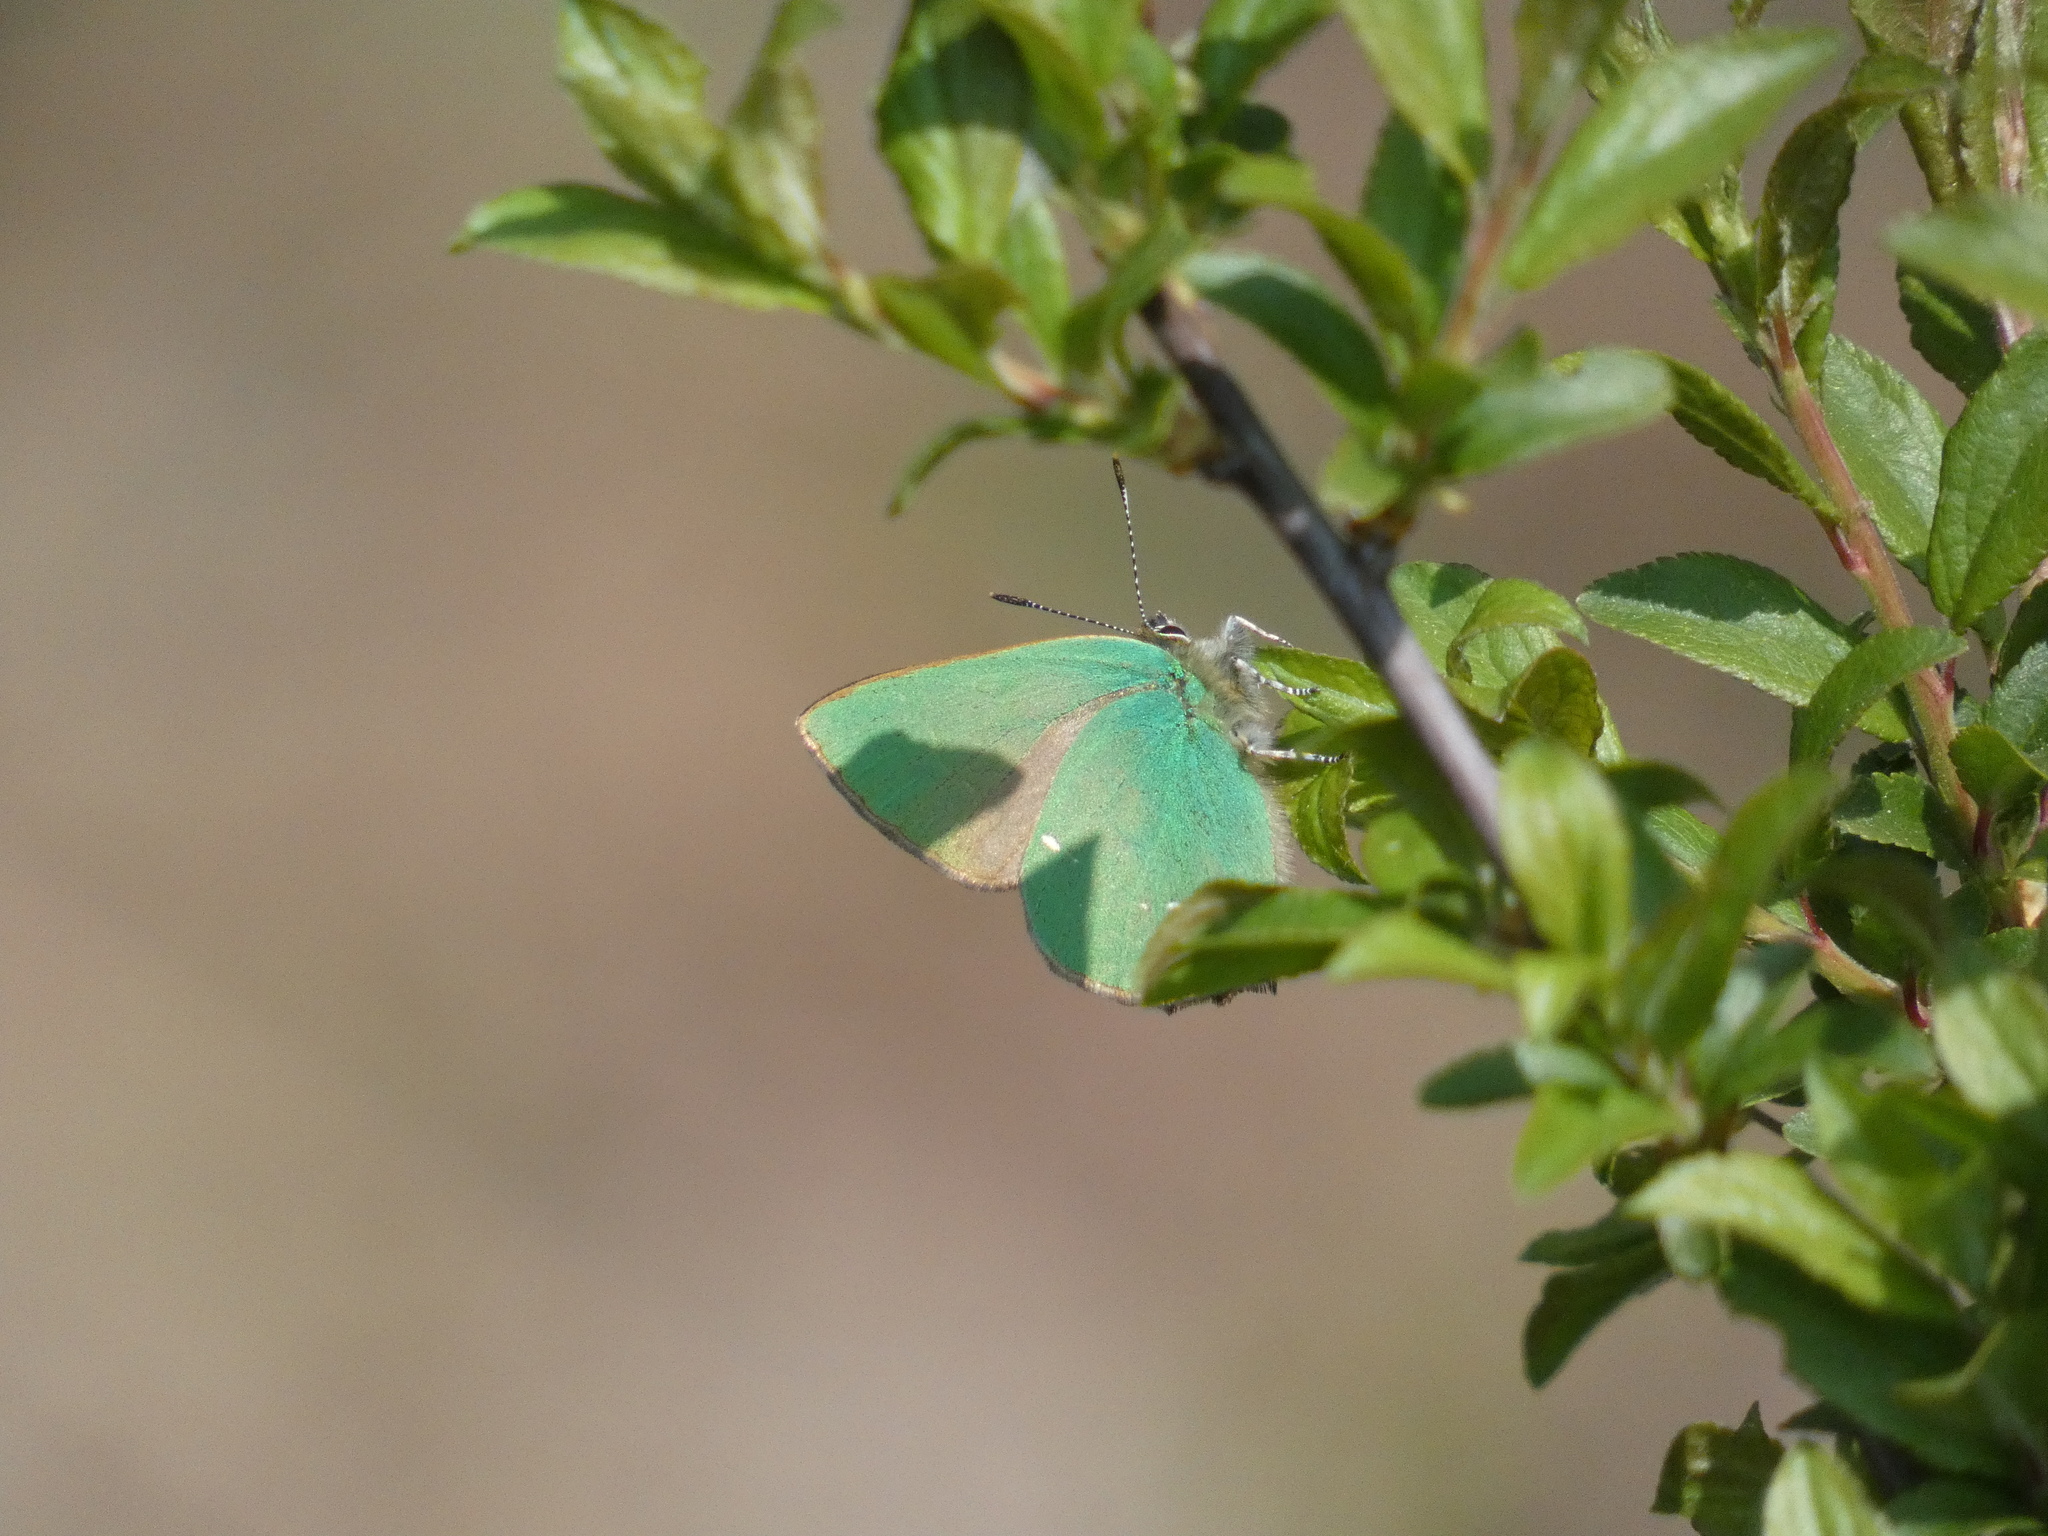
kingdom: Animalia
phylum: Arthropoda
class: Insecta
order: Lepidoptera
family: Lycaenidae
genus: Callophrys
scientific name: Callophrys rubi
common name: Green hairstreak
